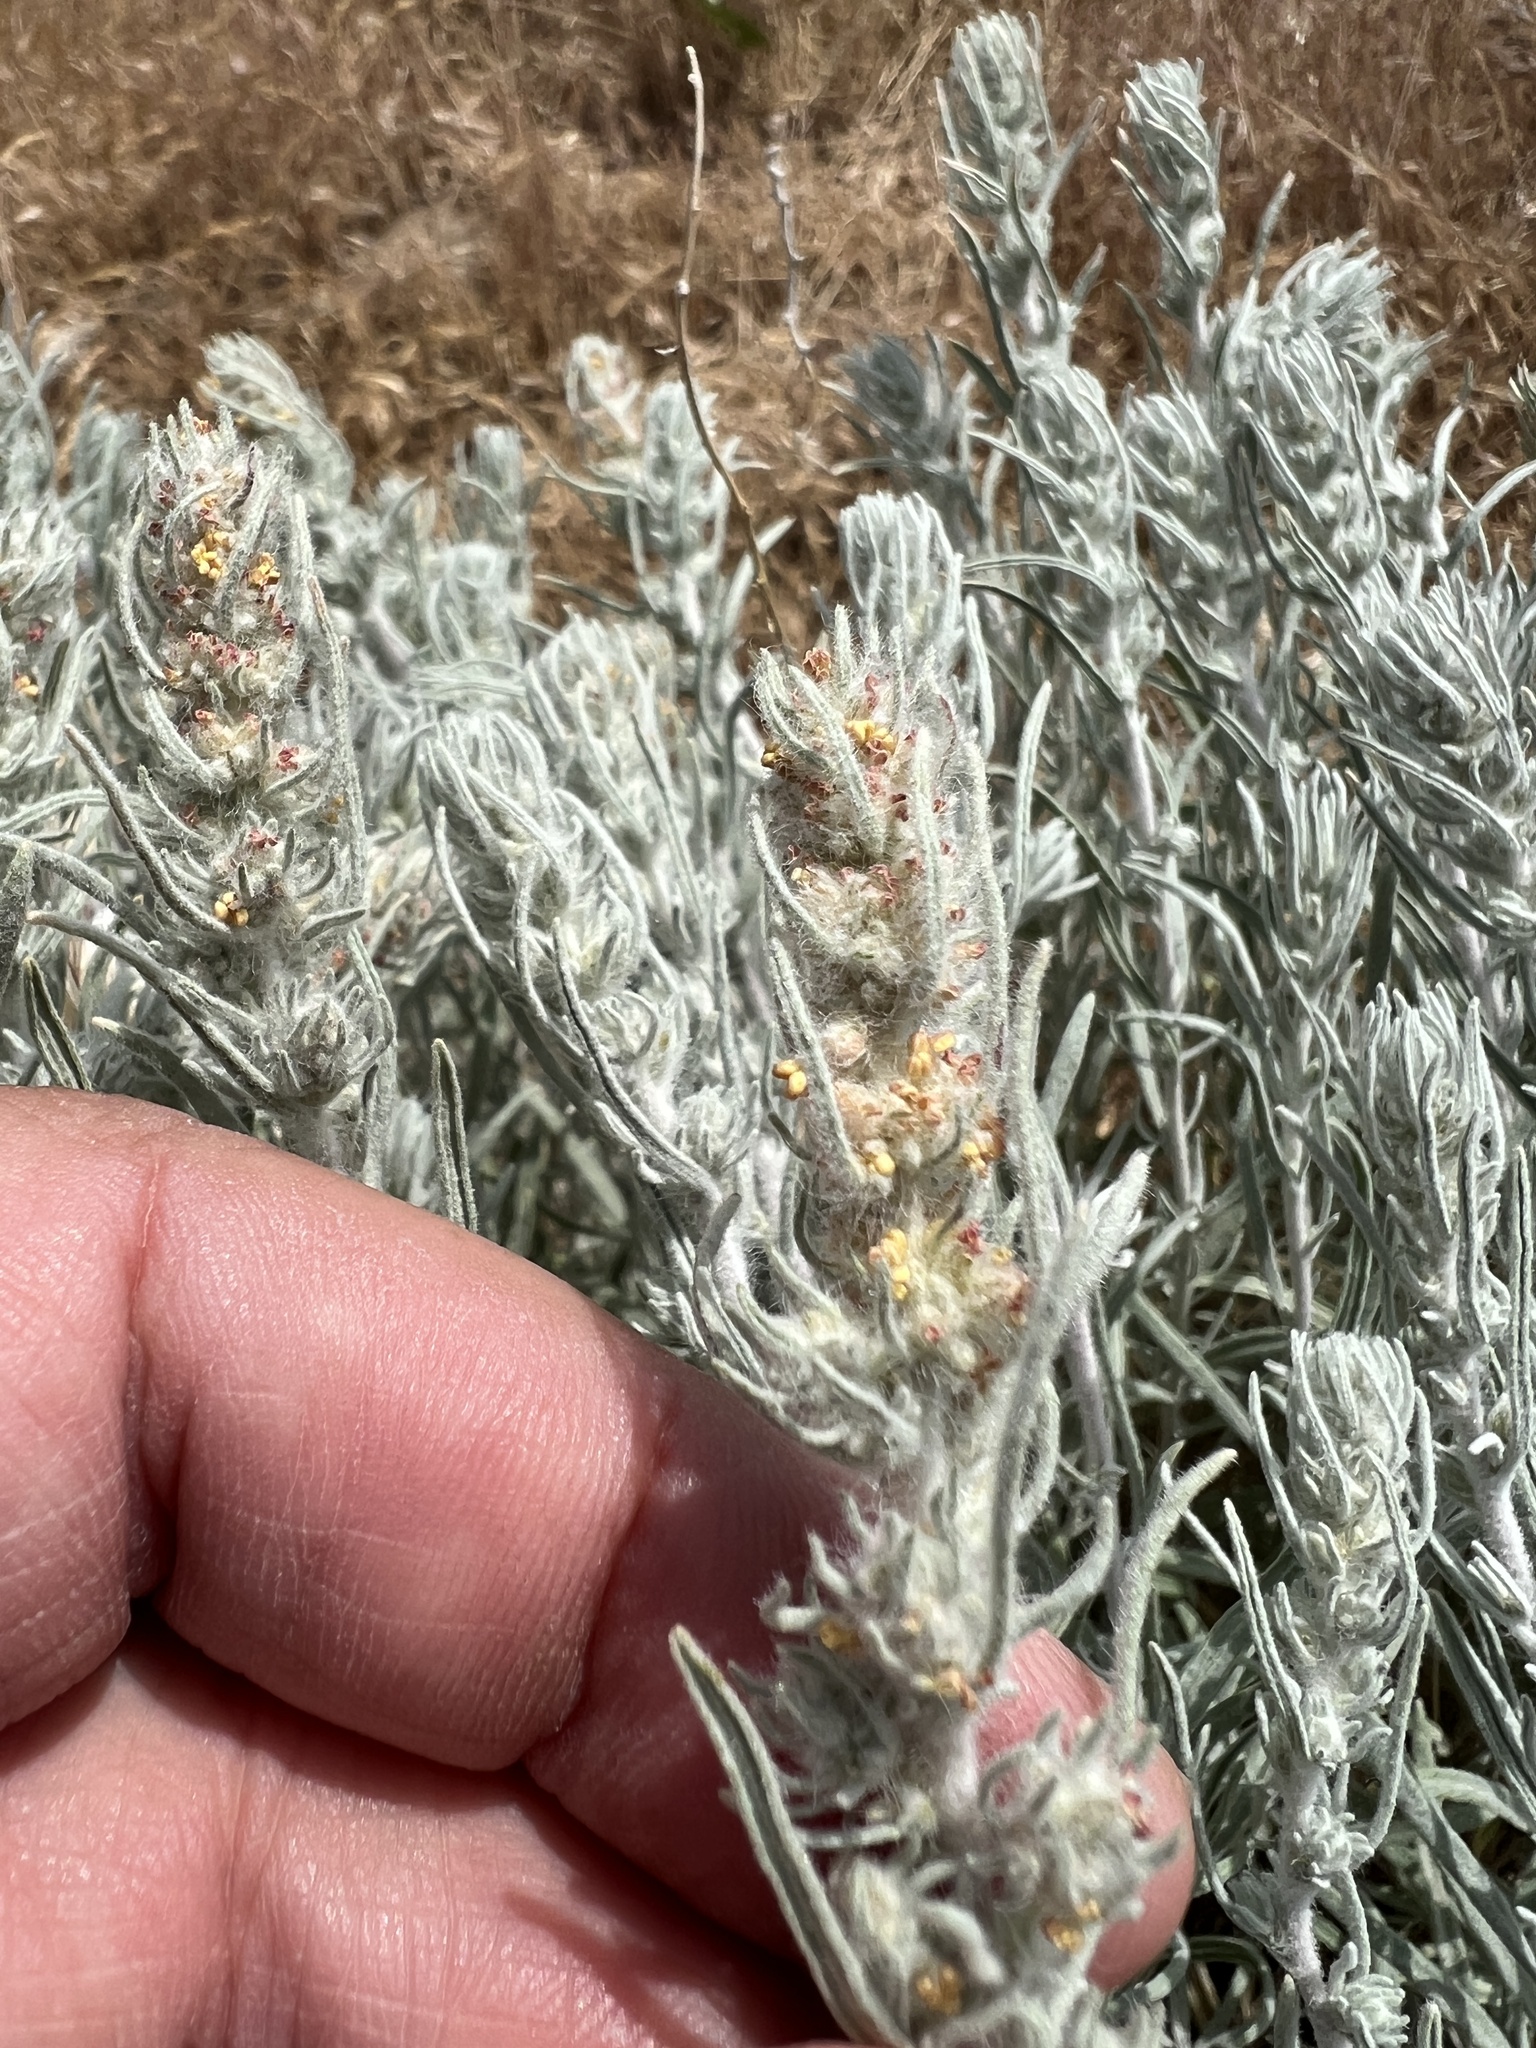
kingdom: Plantae
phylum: Tracheophyta
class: Magnoliopsida
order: Caryophyllales
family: Amaranthaceae
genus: Krascheninnikovia
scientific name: Krascheninnikovia lanata
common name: Winterfat
